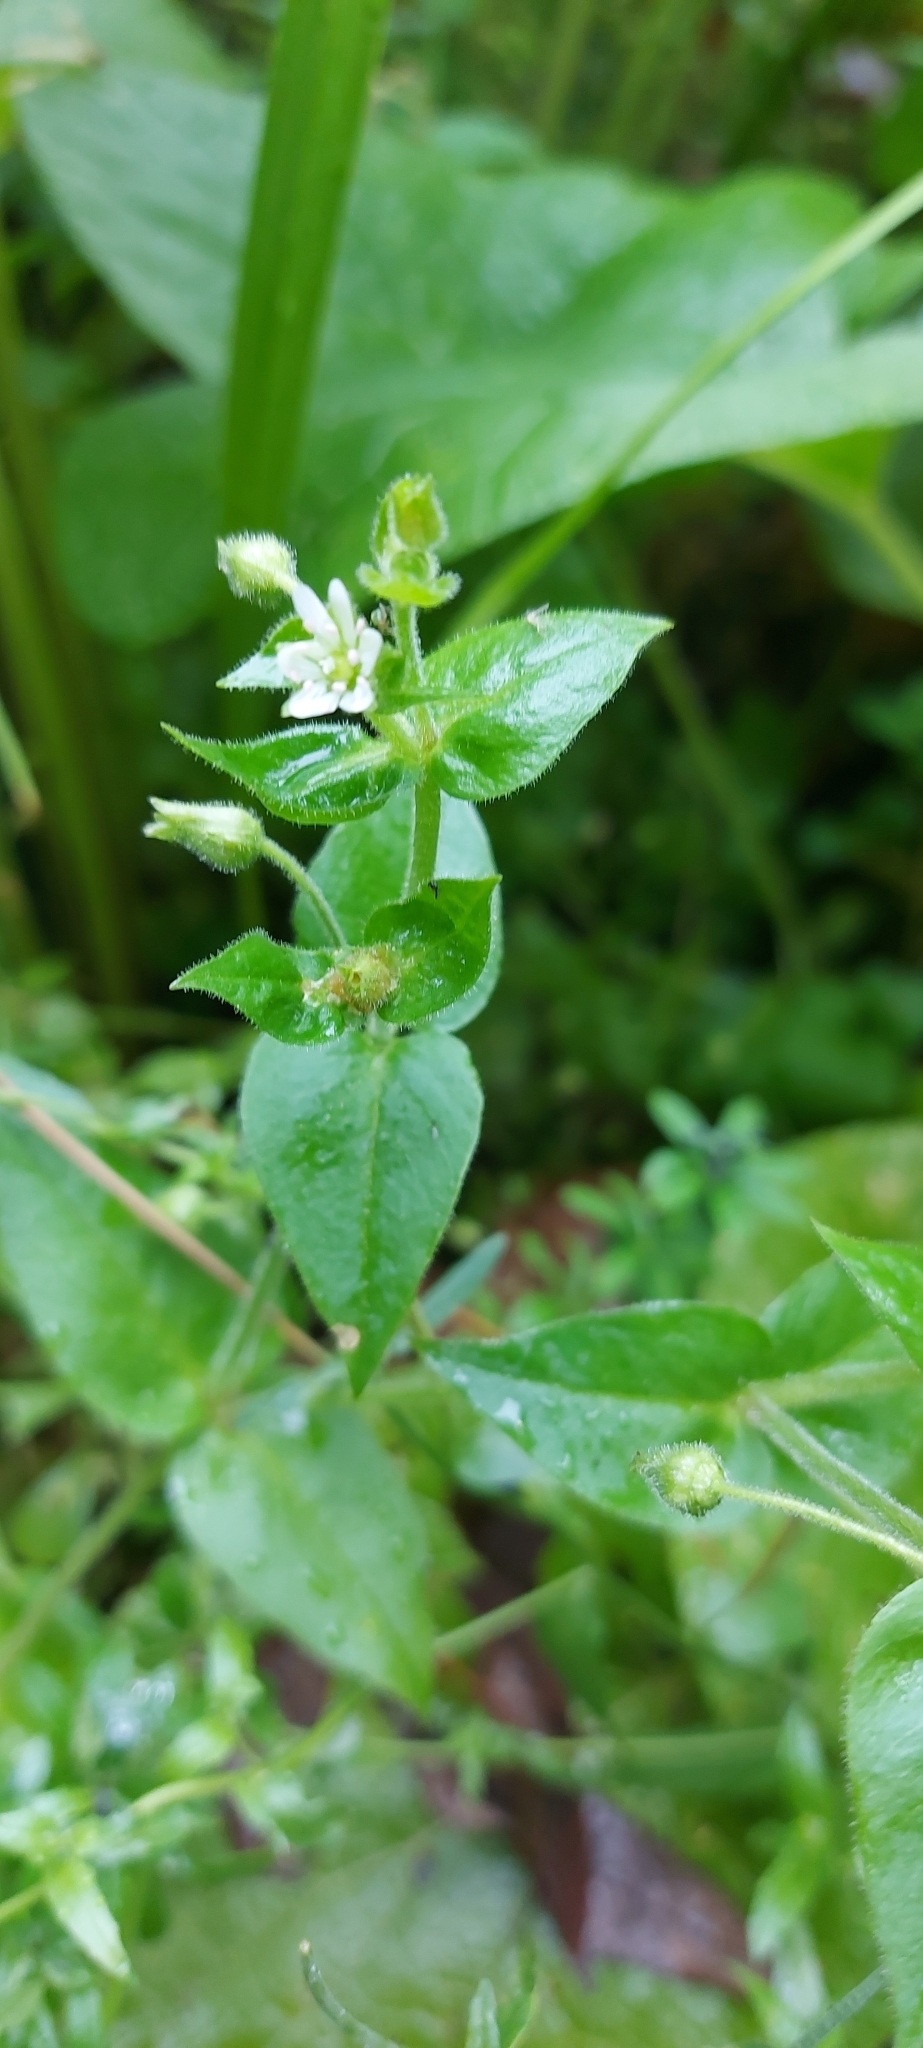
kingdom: Plantae
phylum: Tracheophyta
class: Magnoliopsida
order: Caryophyllales
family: Caryophyllaceae
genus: Stellaria
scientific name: Stellaria aquatica
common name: Water chickweed
